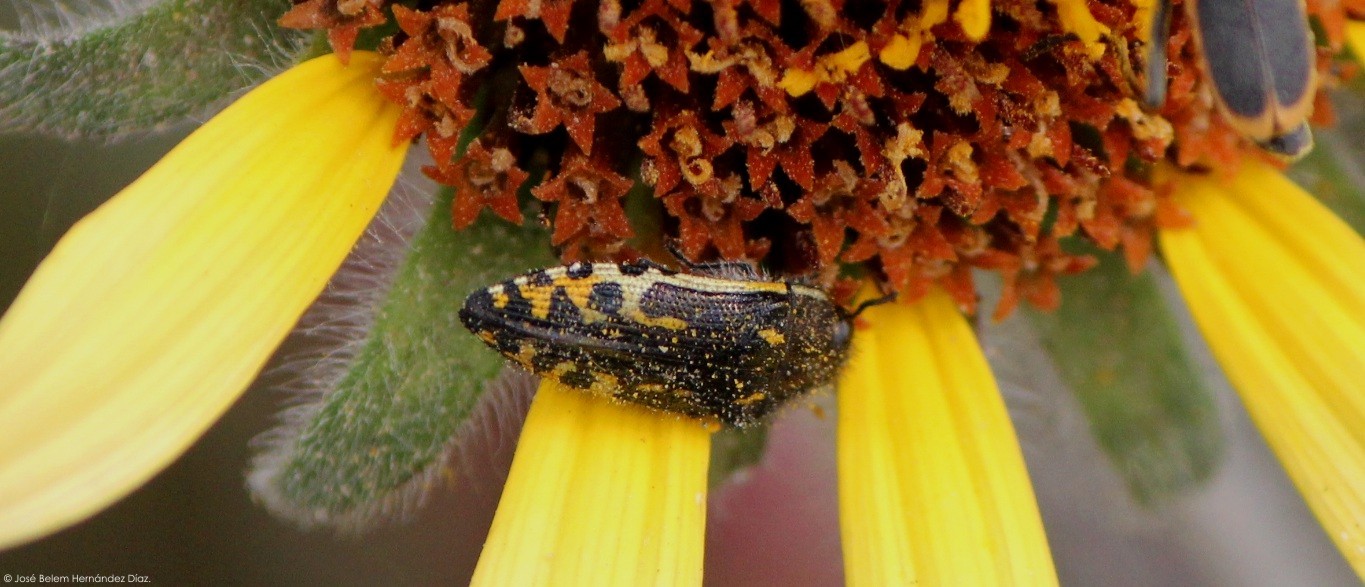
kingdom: Animalia
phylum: Arthropoda
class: Insecta
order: Coleoptera
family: Buprestidae
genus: Acmaeodera
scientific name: Acmaeodera scalaris
